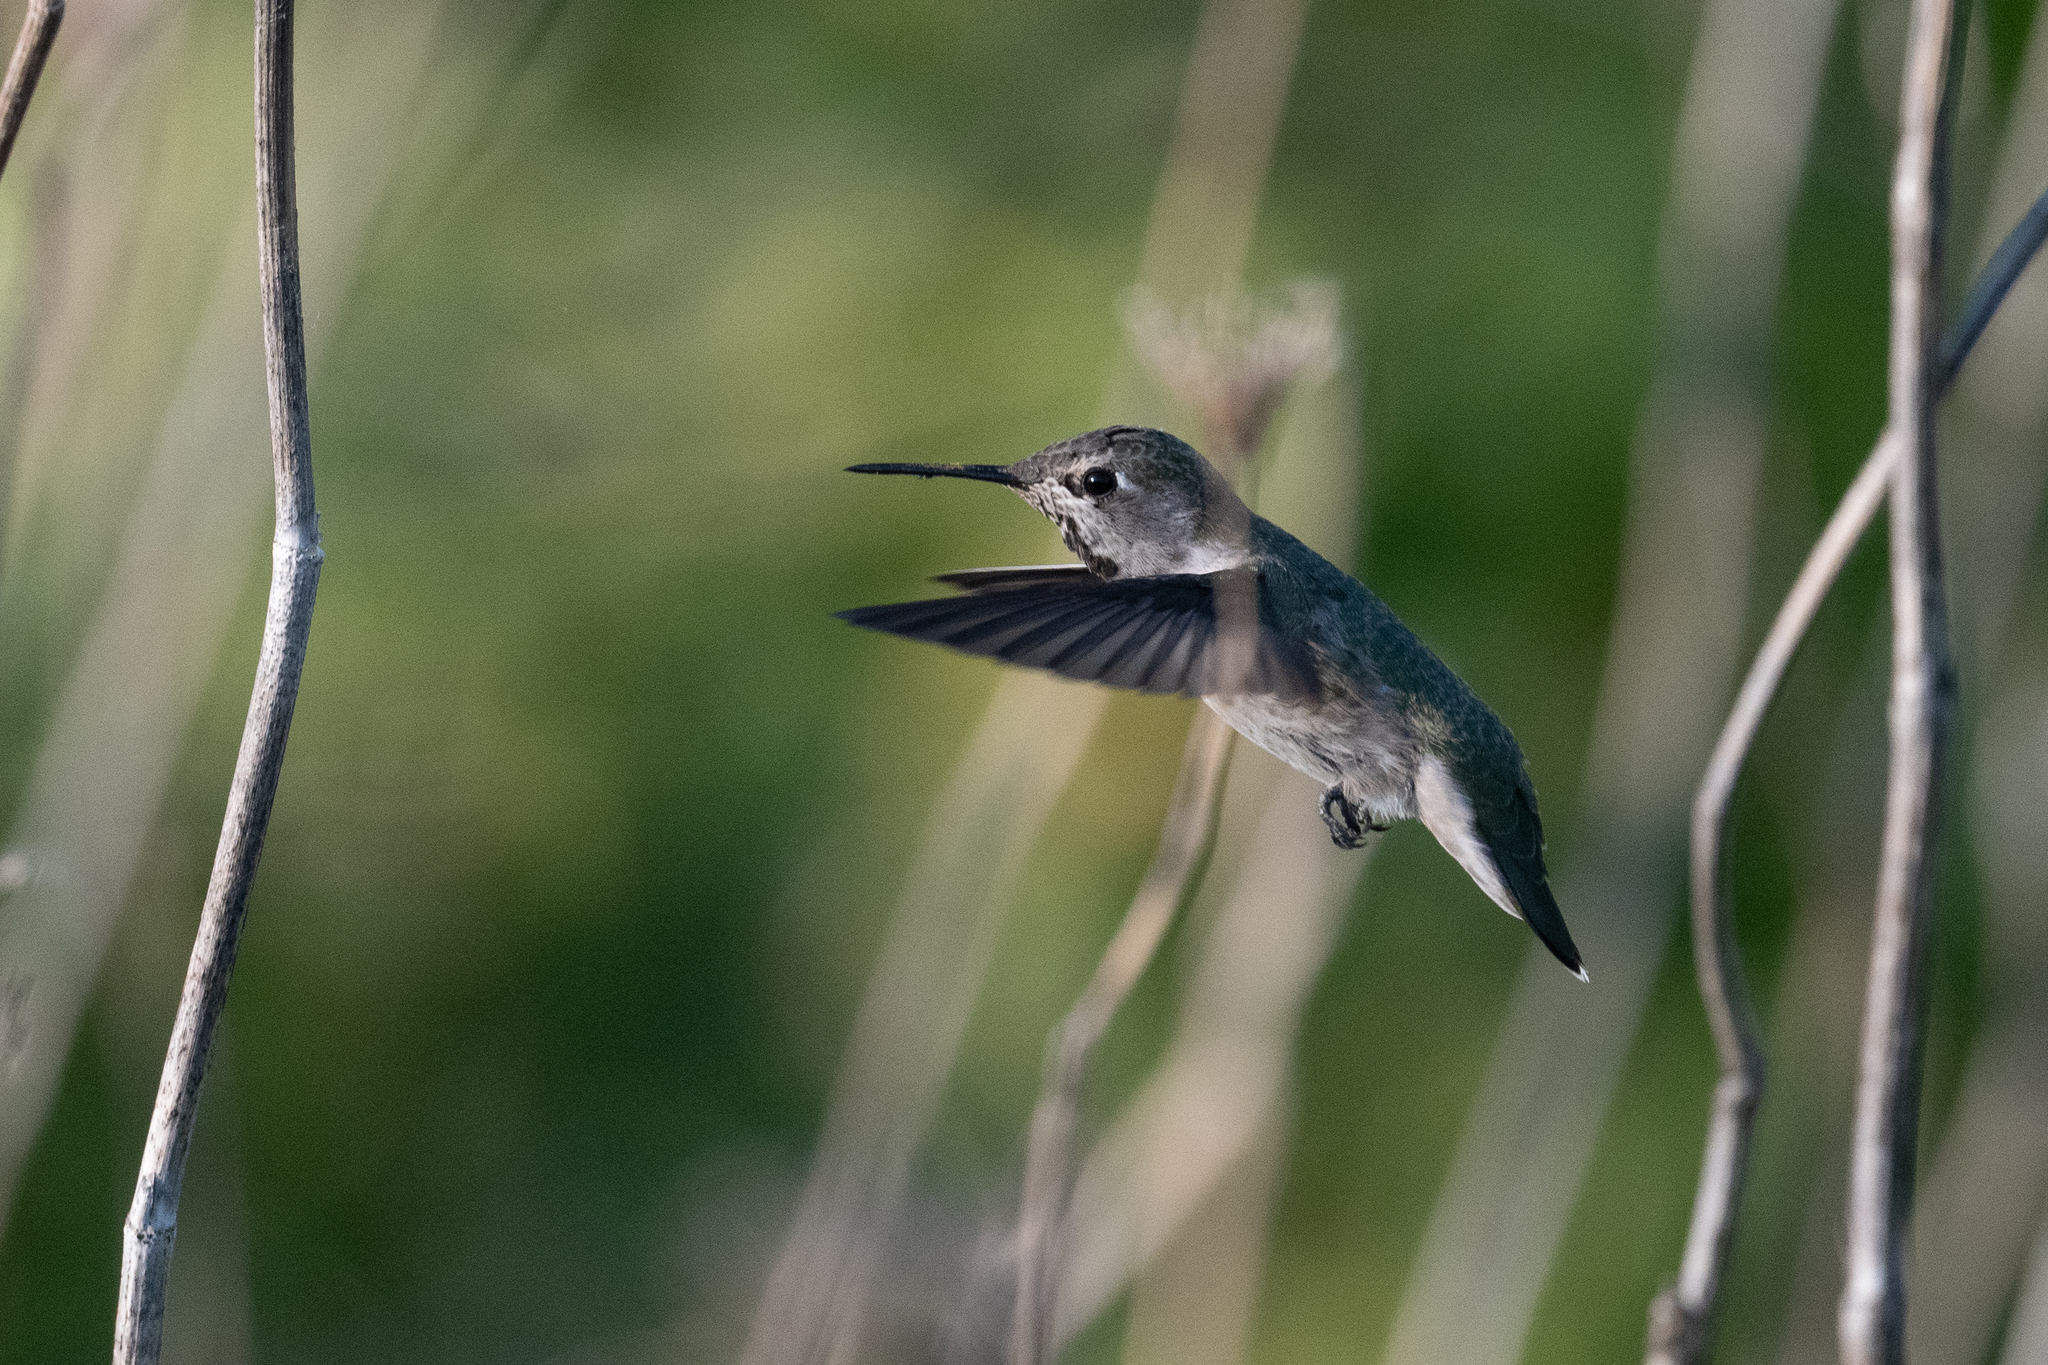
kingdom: Animalia
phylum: Chordata
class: Aves
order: Apodiformes
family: Trochilidae
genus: Calypte
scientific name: Calypte anna
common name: Anna's hummingbird
